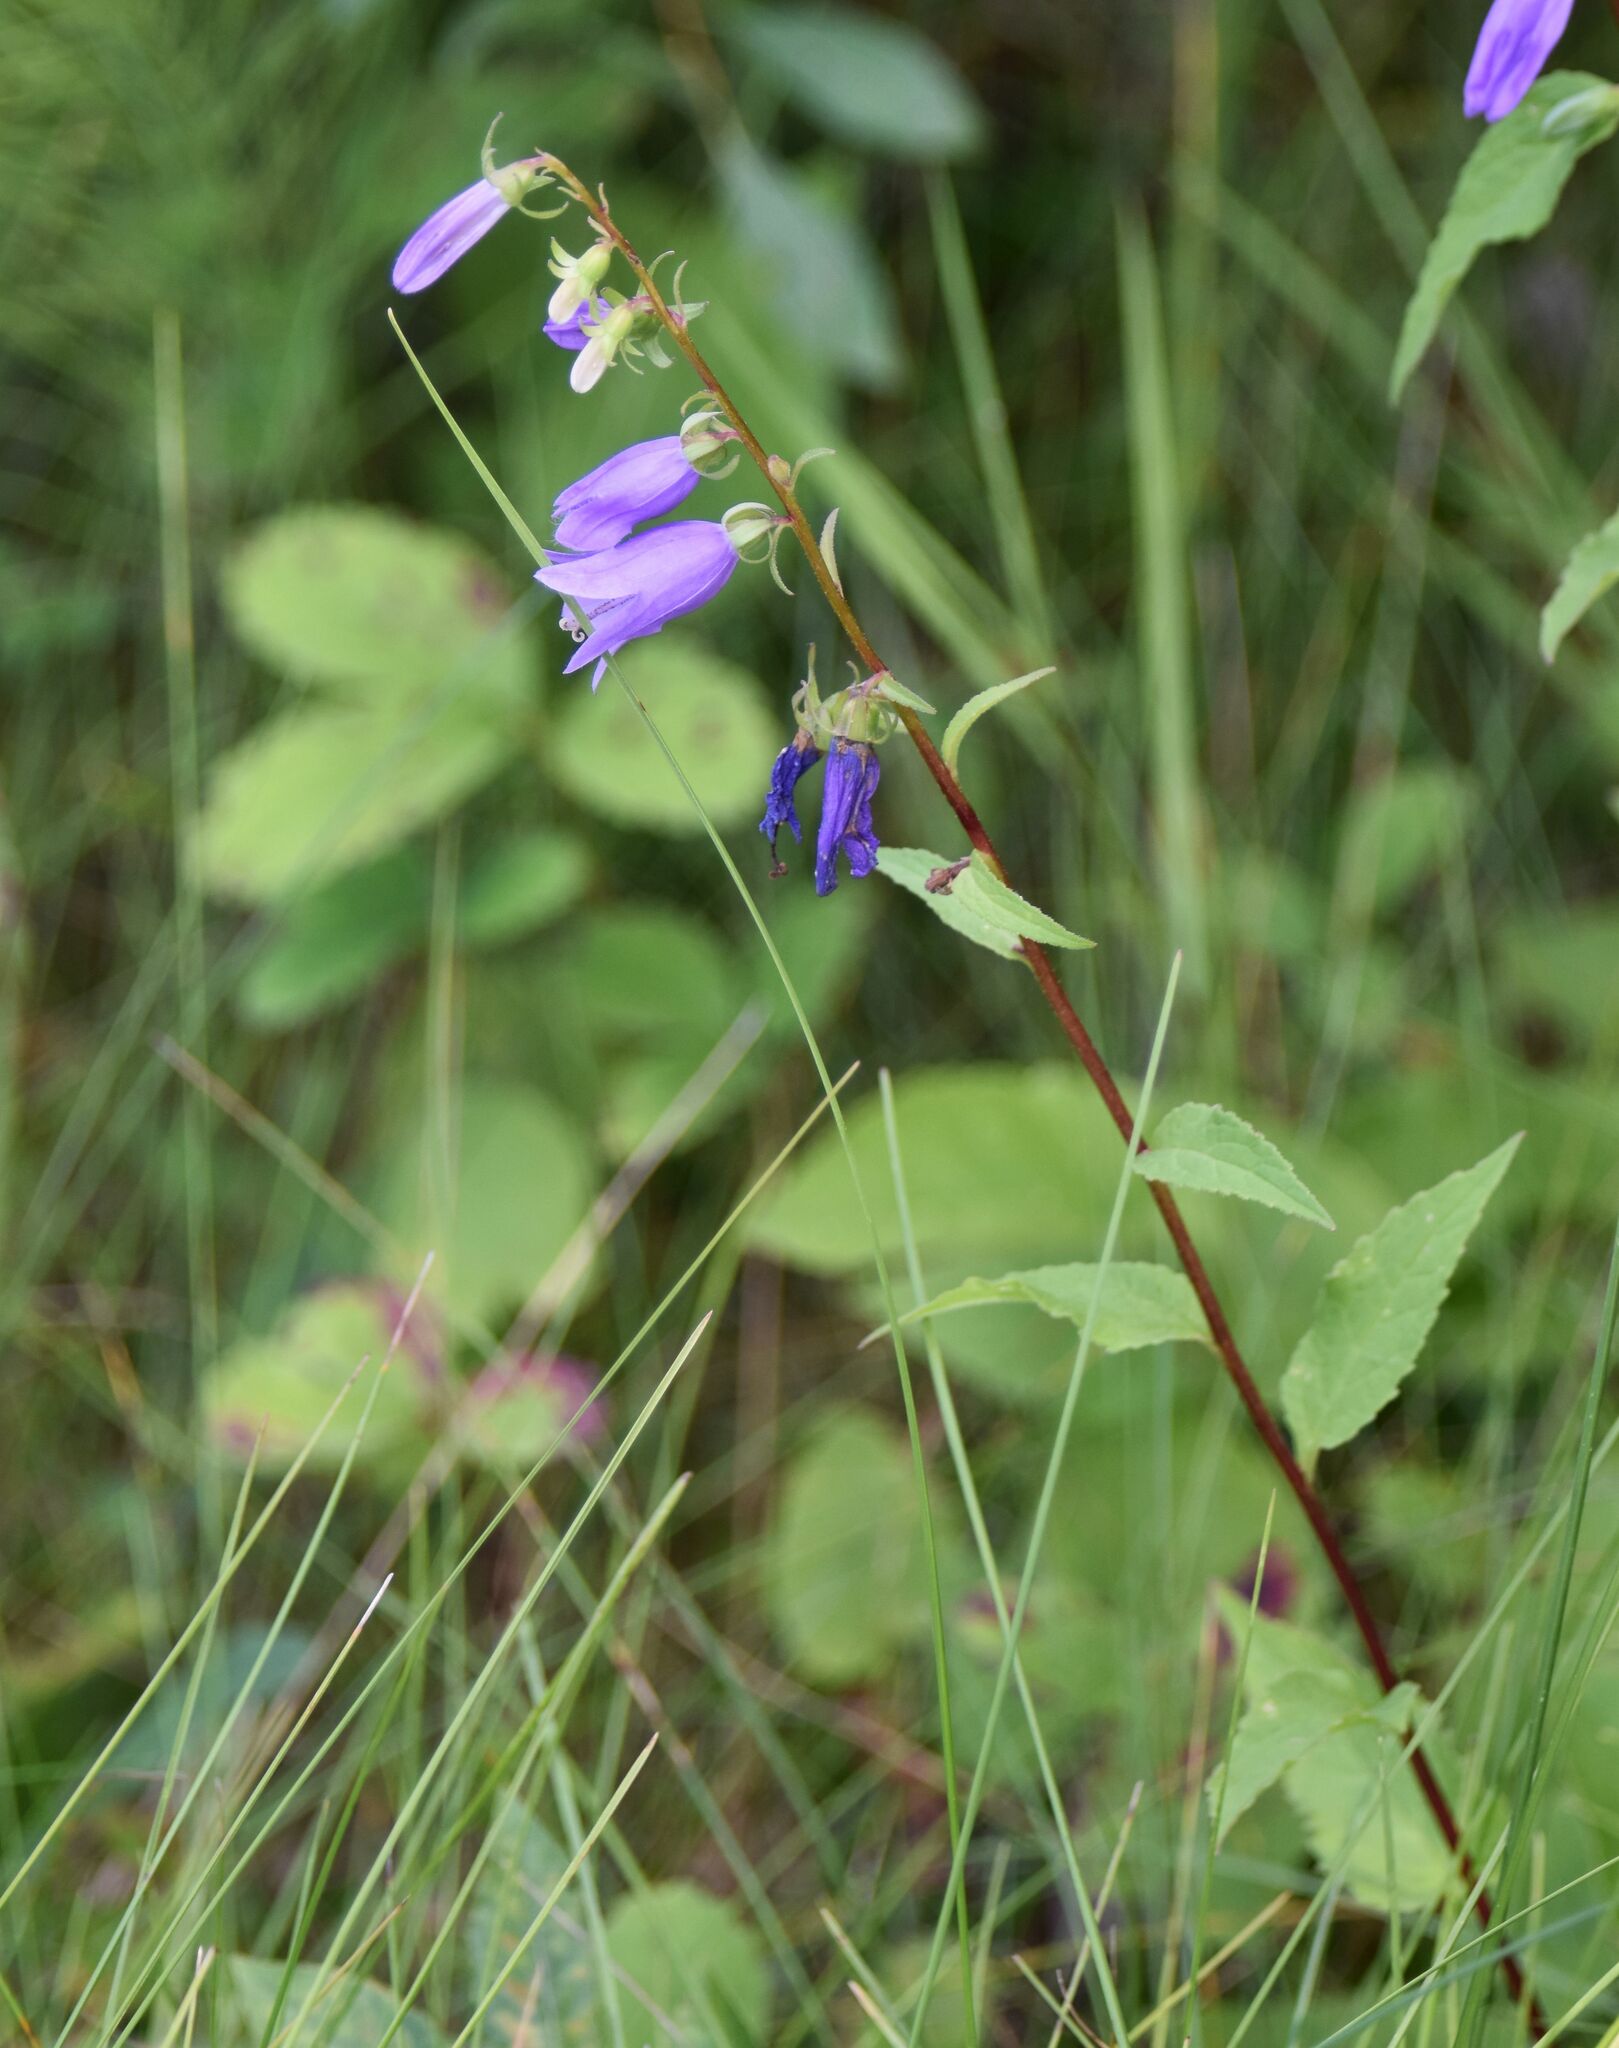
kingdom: Plantae
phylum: Tracheophyta
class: Magnoliopsida
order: Asterales
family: Campanulaceae
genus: Campanula
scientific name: Campanula rapunculoides
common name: Creeping bellflower
